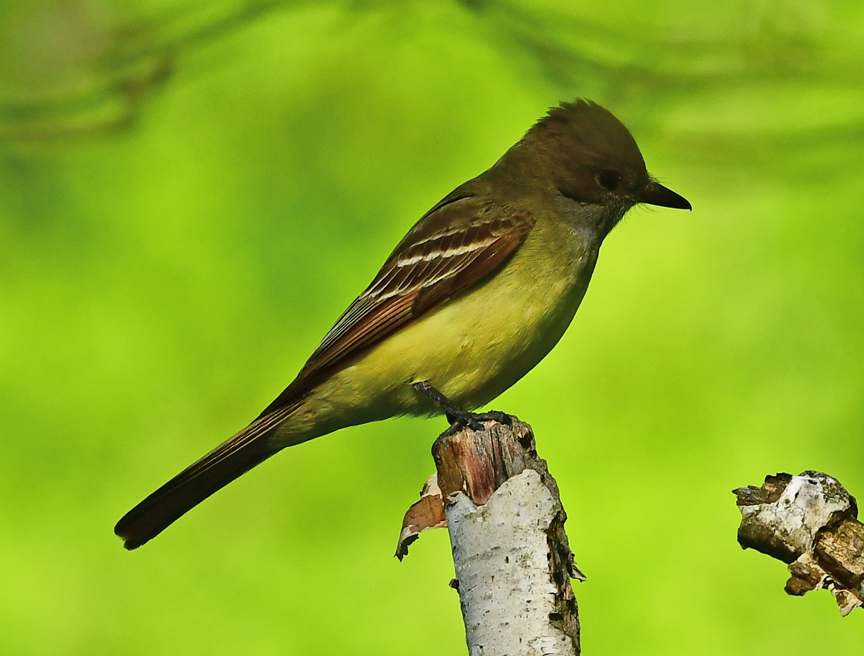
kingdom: Animalia
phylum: Chordata
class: Aves
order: Passeriformes
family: Tyrannidae
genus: Myiarchus
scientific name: Myiarchus crinitus
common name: Great crested flycatcher
